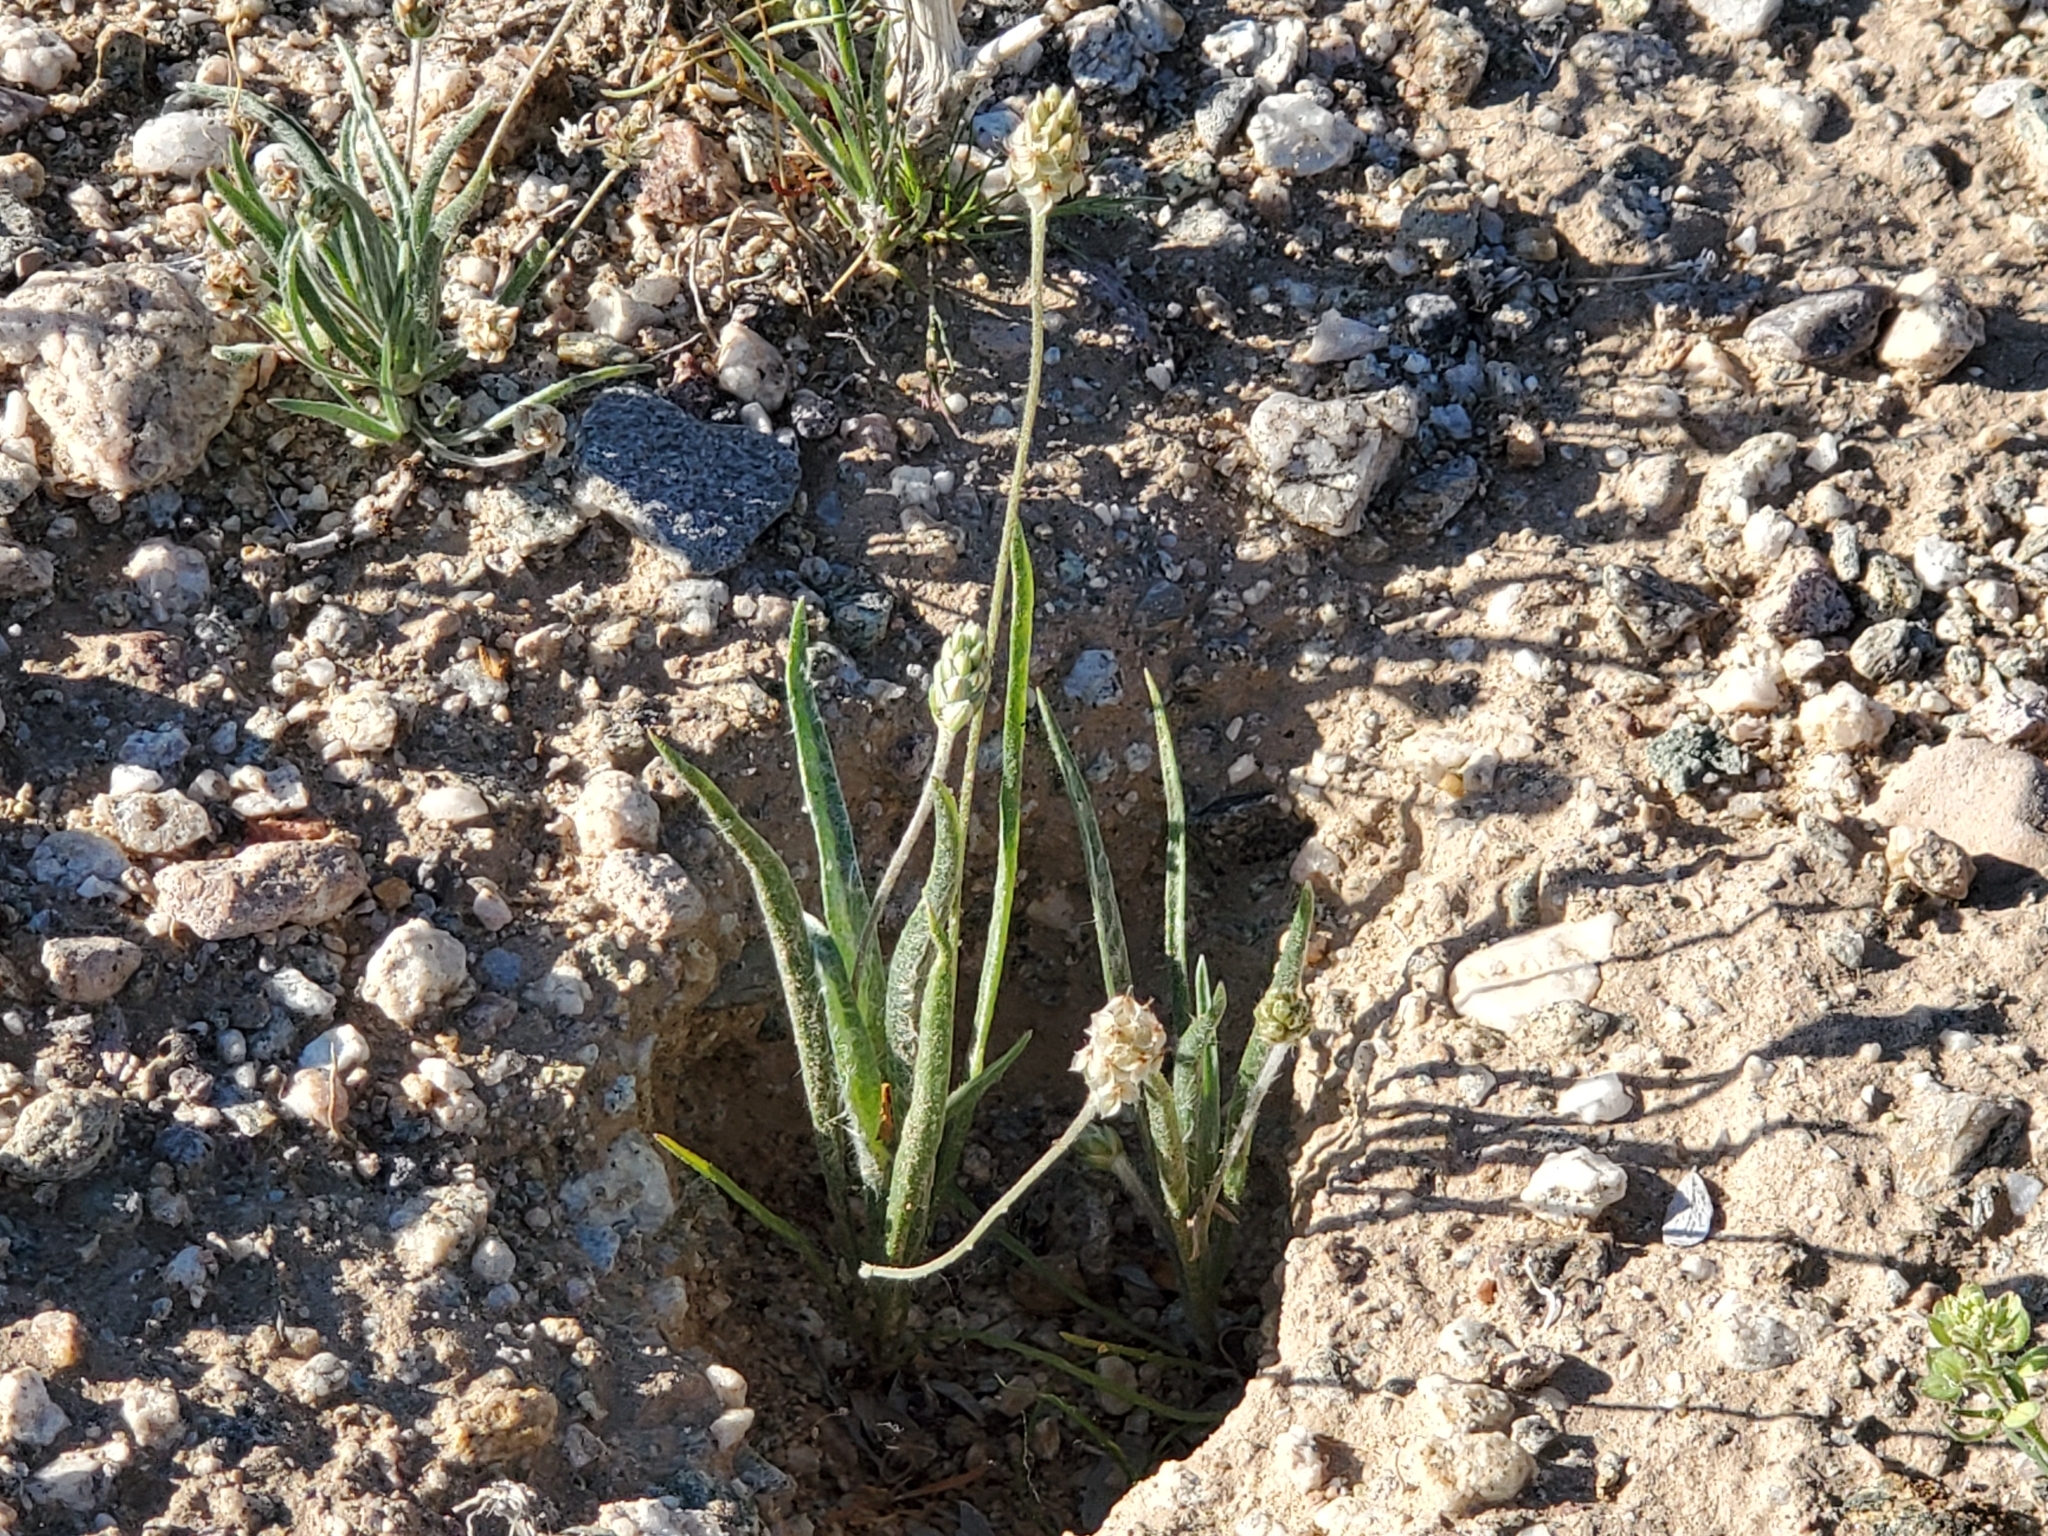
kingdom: Plantae
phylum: Tracheophyta
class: Magnoliopsida
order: Lamiales
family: Plantaginaceae
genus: Plantago
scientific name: Plantago ovata
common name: Blond plantain
